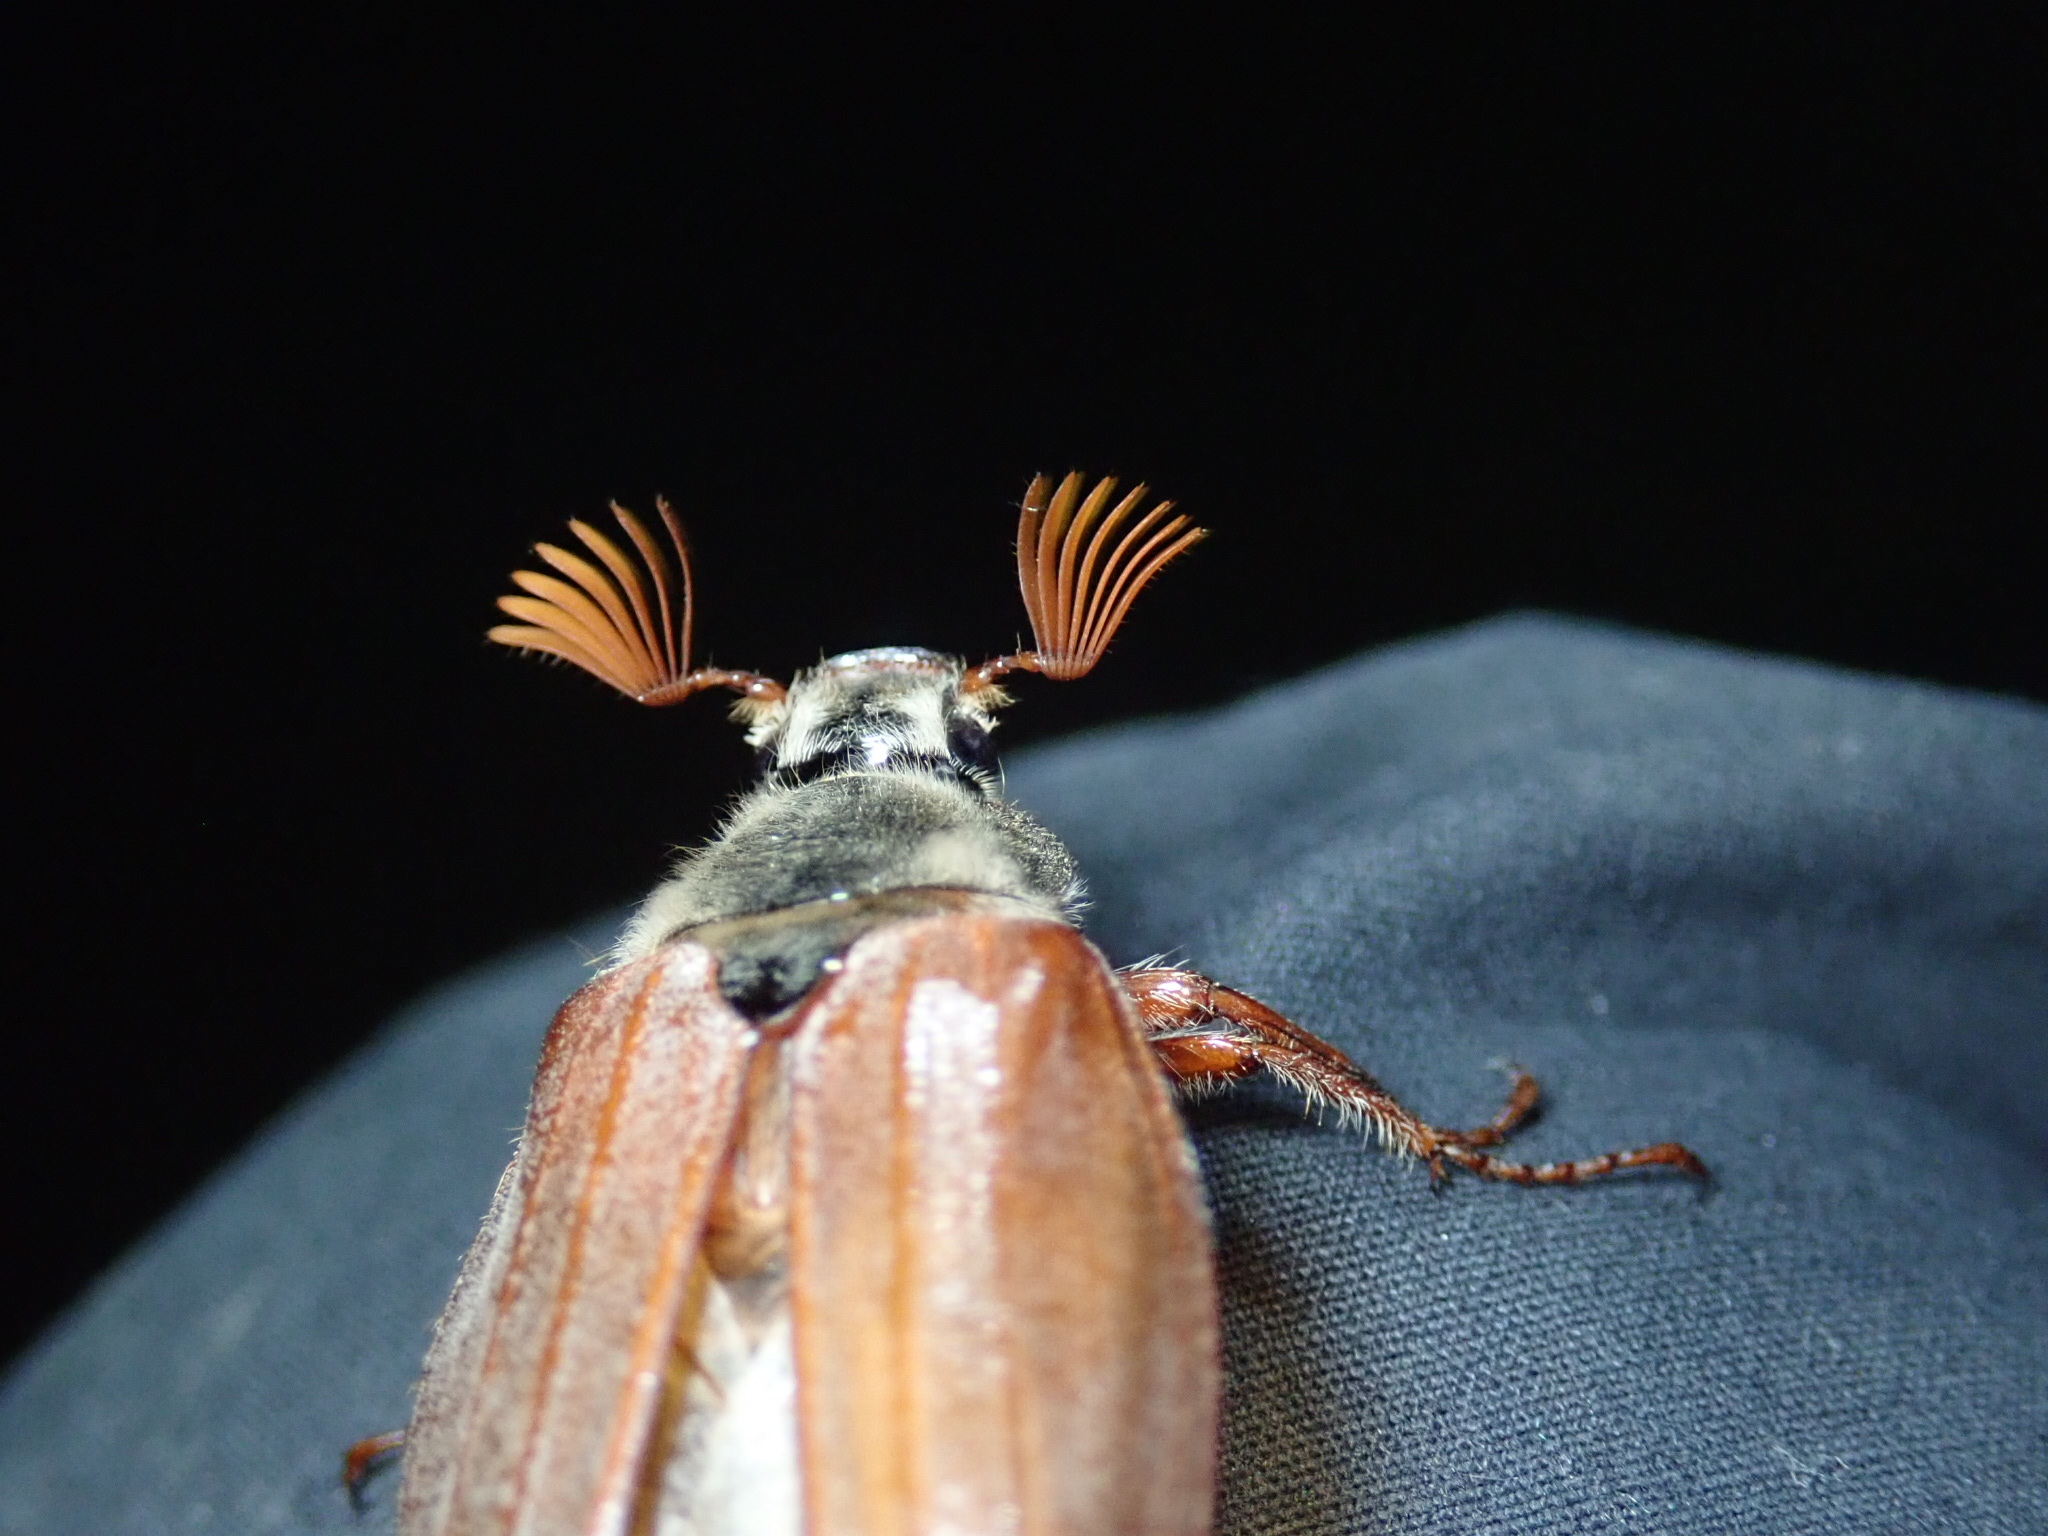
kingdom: Animalia
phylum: Arthropoda
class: Insecta
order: Coleoptera
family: Scarabaeidae
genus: Melolontha
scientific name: Melolontha melolontha
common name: Cockchafer maybeetle
